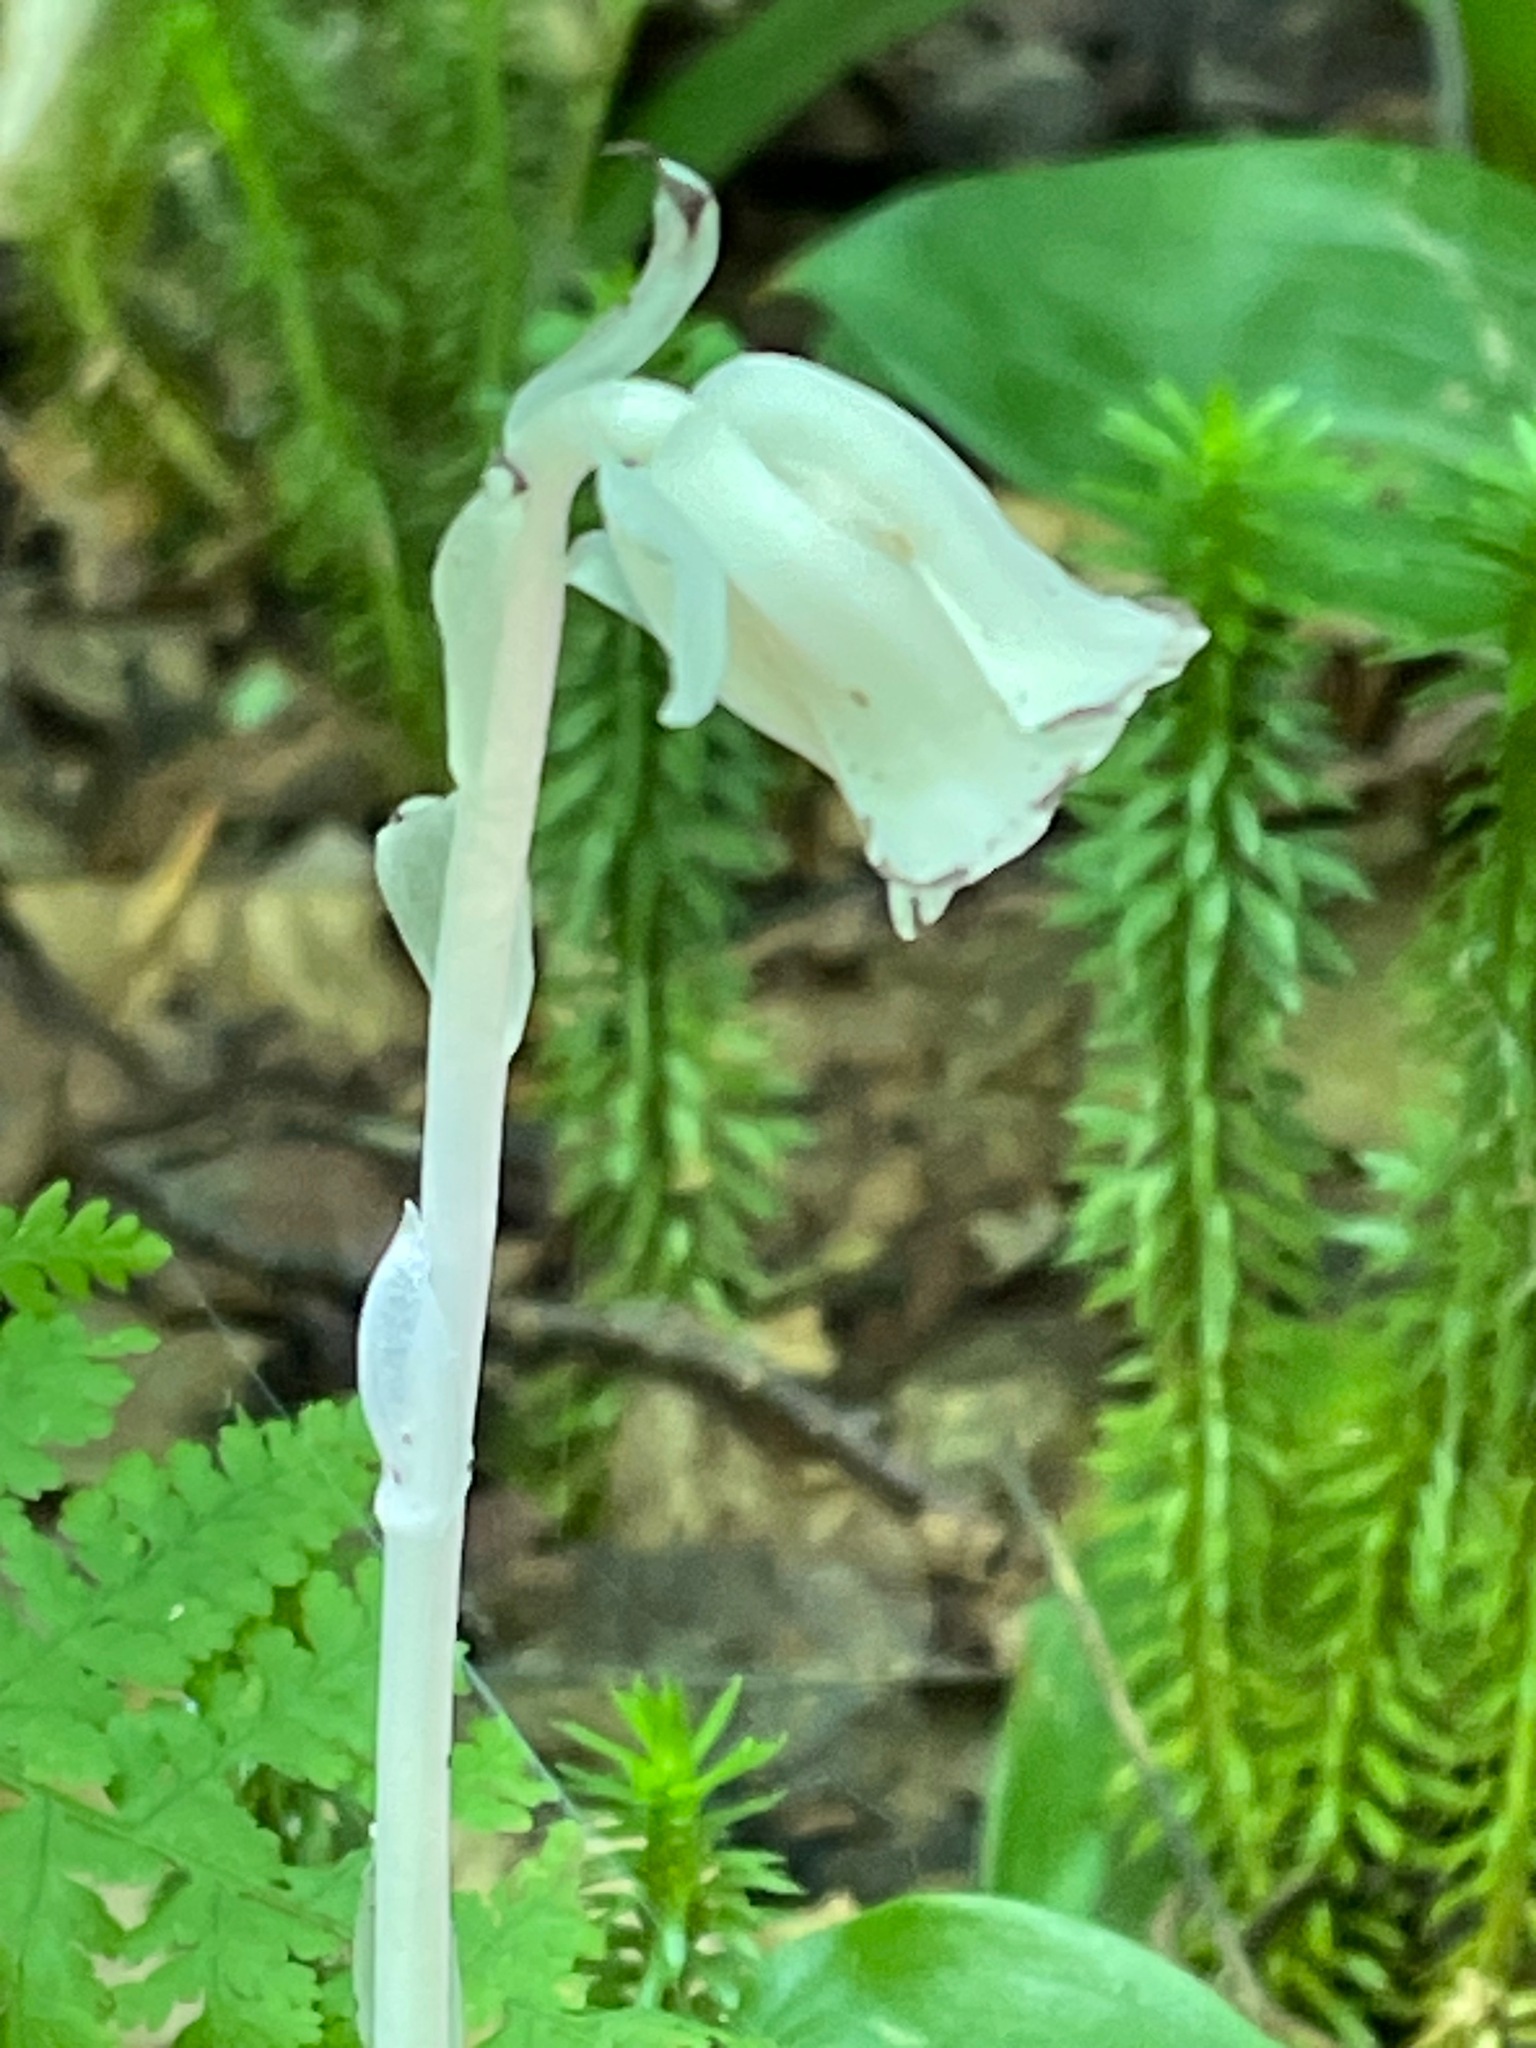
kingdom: Plantae
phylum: Tracheophyta
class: Magnoliopsida
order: Ericales
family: Ericaceae
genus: Monotropa
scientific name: Monotropa uniflora
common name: Convulsion root
